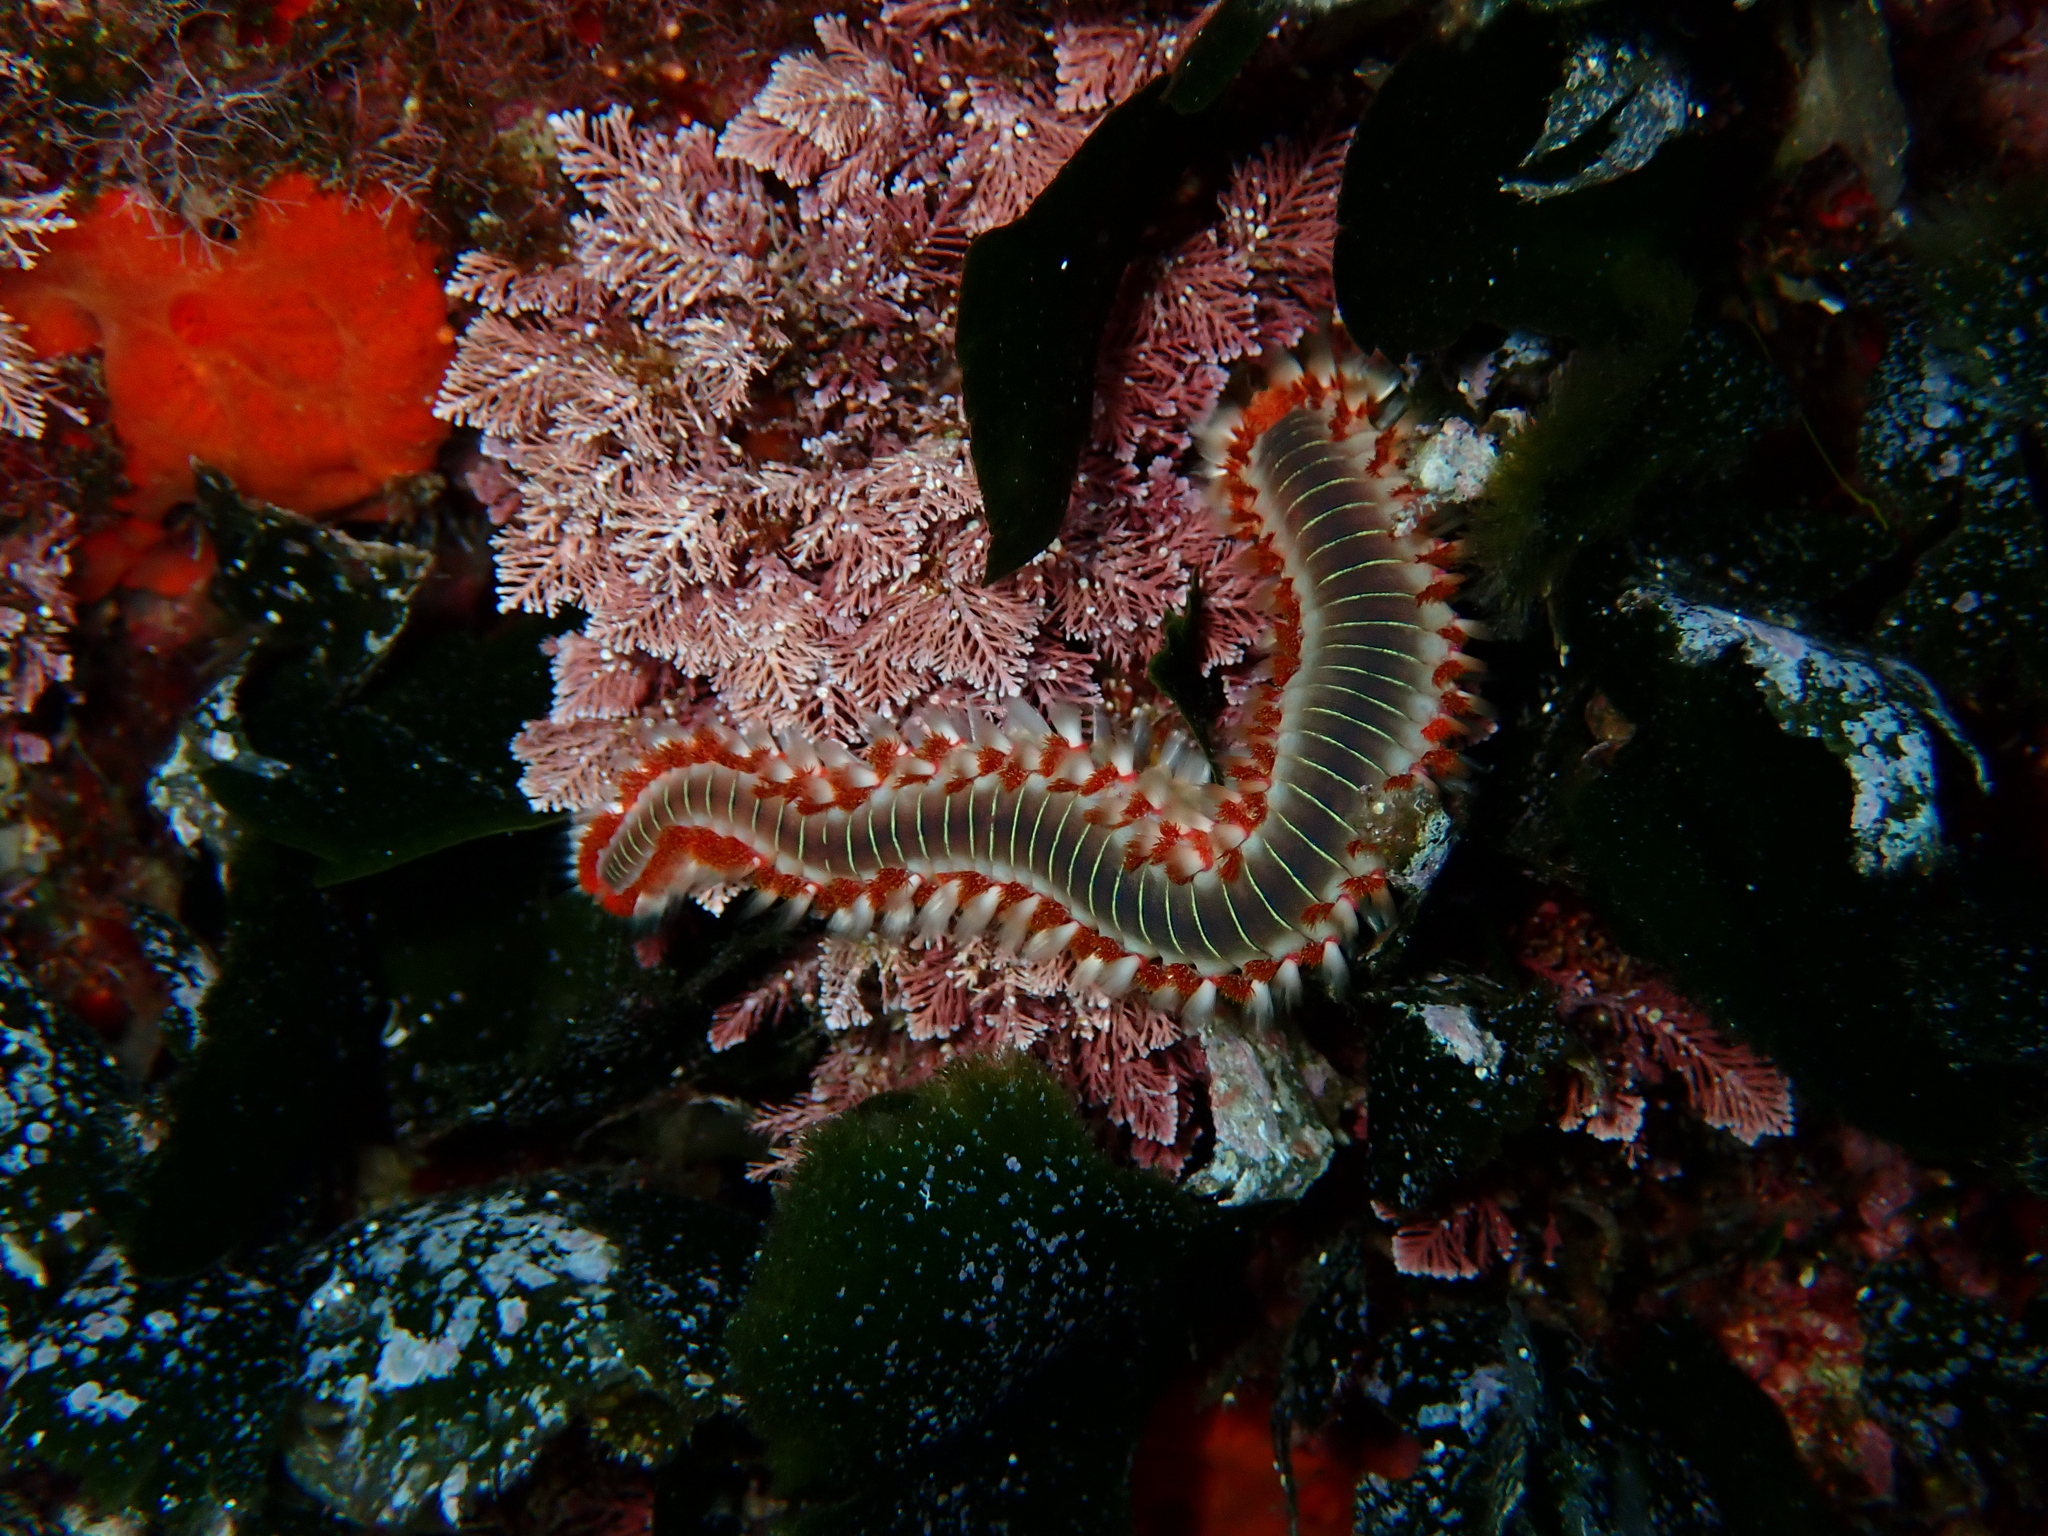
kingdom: Animalia
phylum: Annelida
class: Polychaeta
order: Amphinomida
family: Amphinomidae
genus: Hermodice
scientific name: Hermodice carunculata
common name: Bearded fireworm
